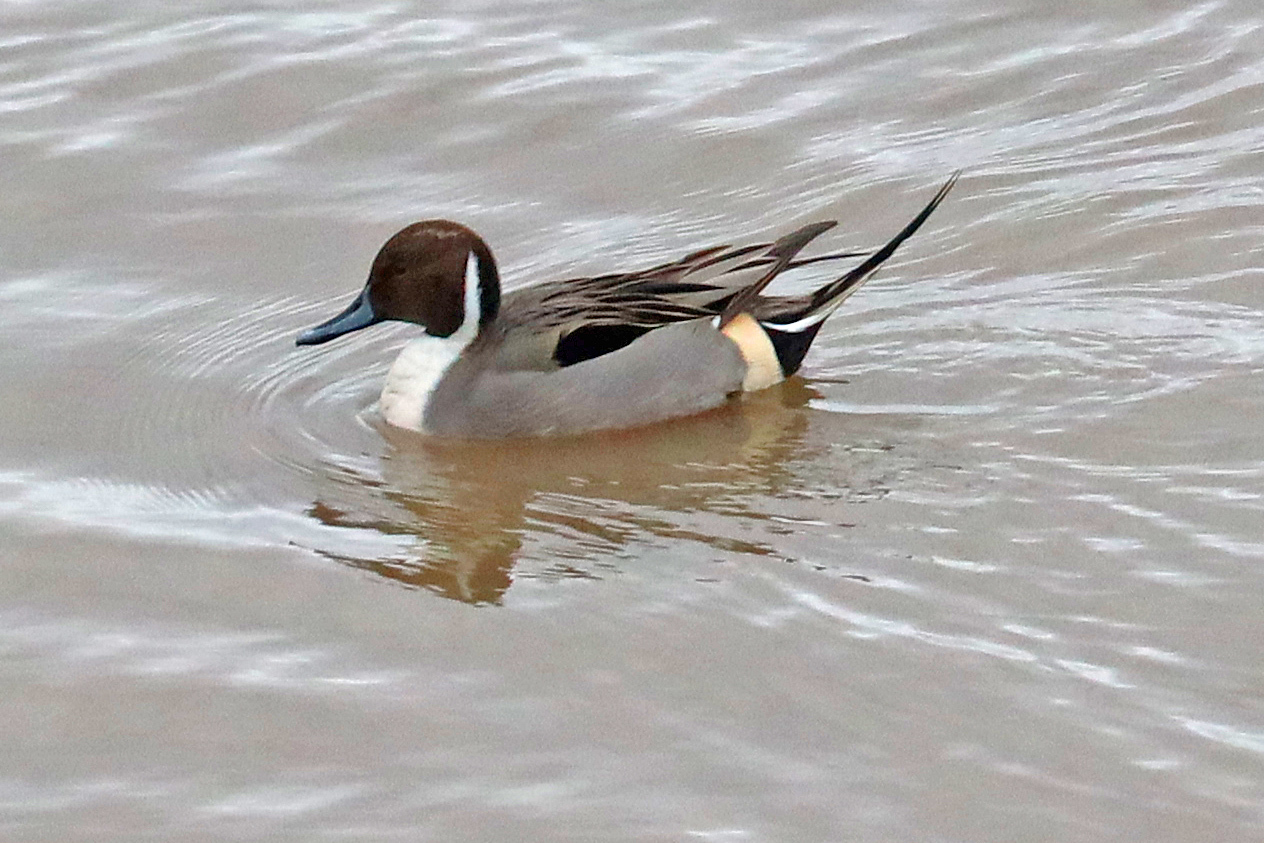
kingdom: Animalia
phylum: Chordata
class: Aves
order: Anseriformes
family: Anatidae
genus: Anas
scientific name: Anas acuta
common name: Northern pintail
